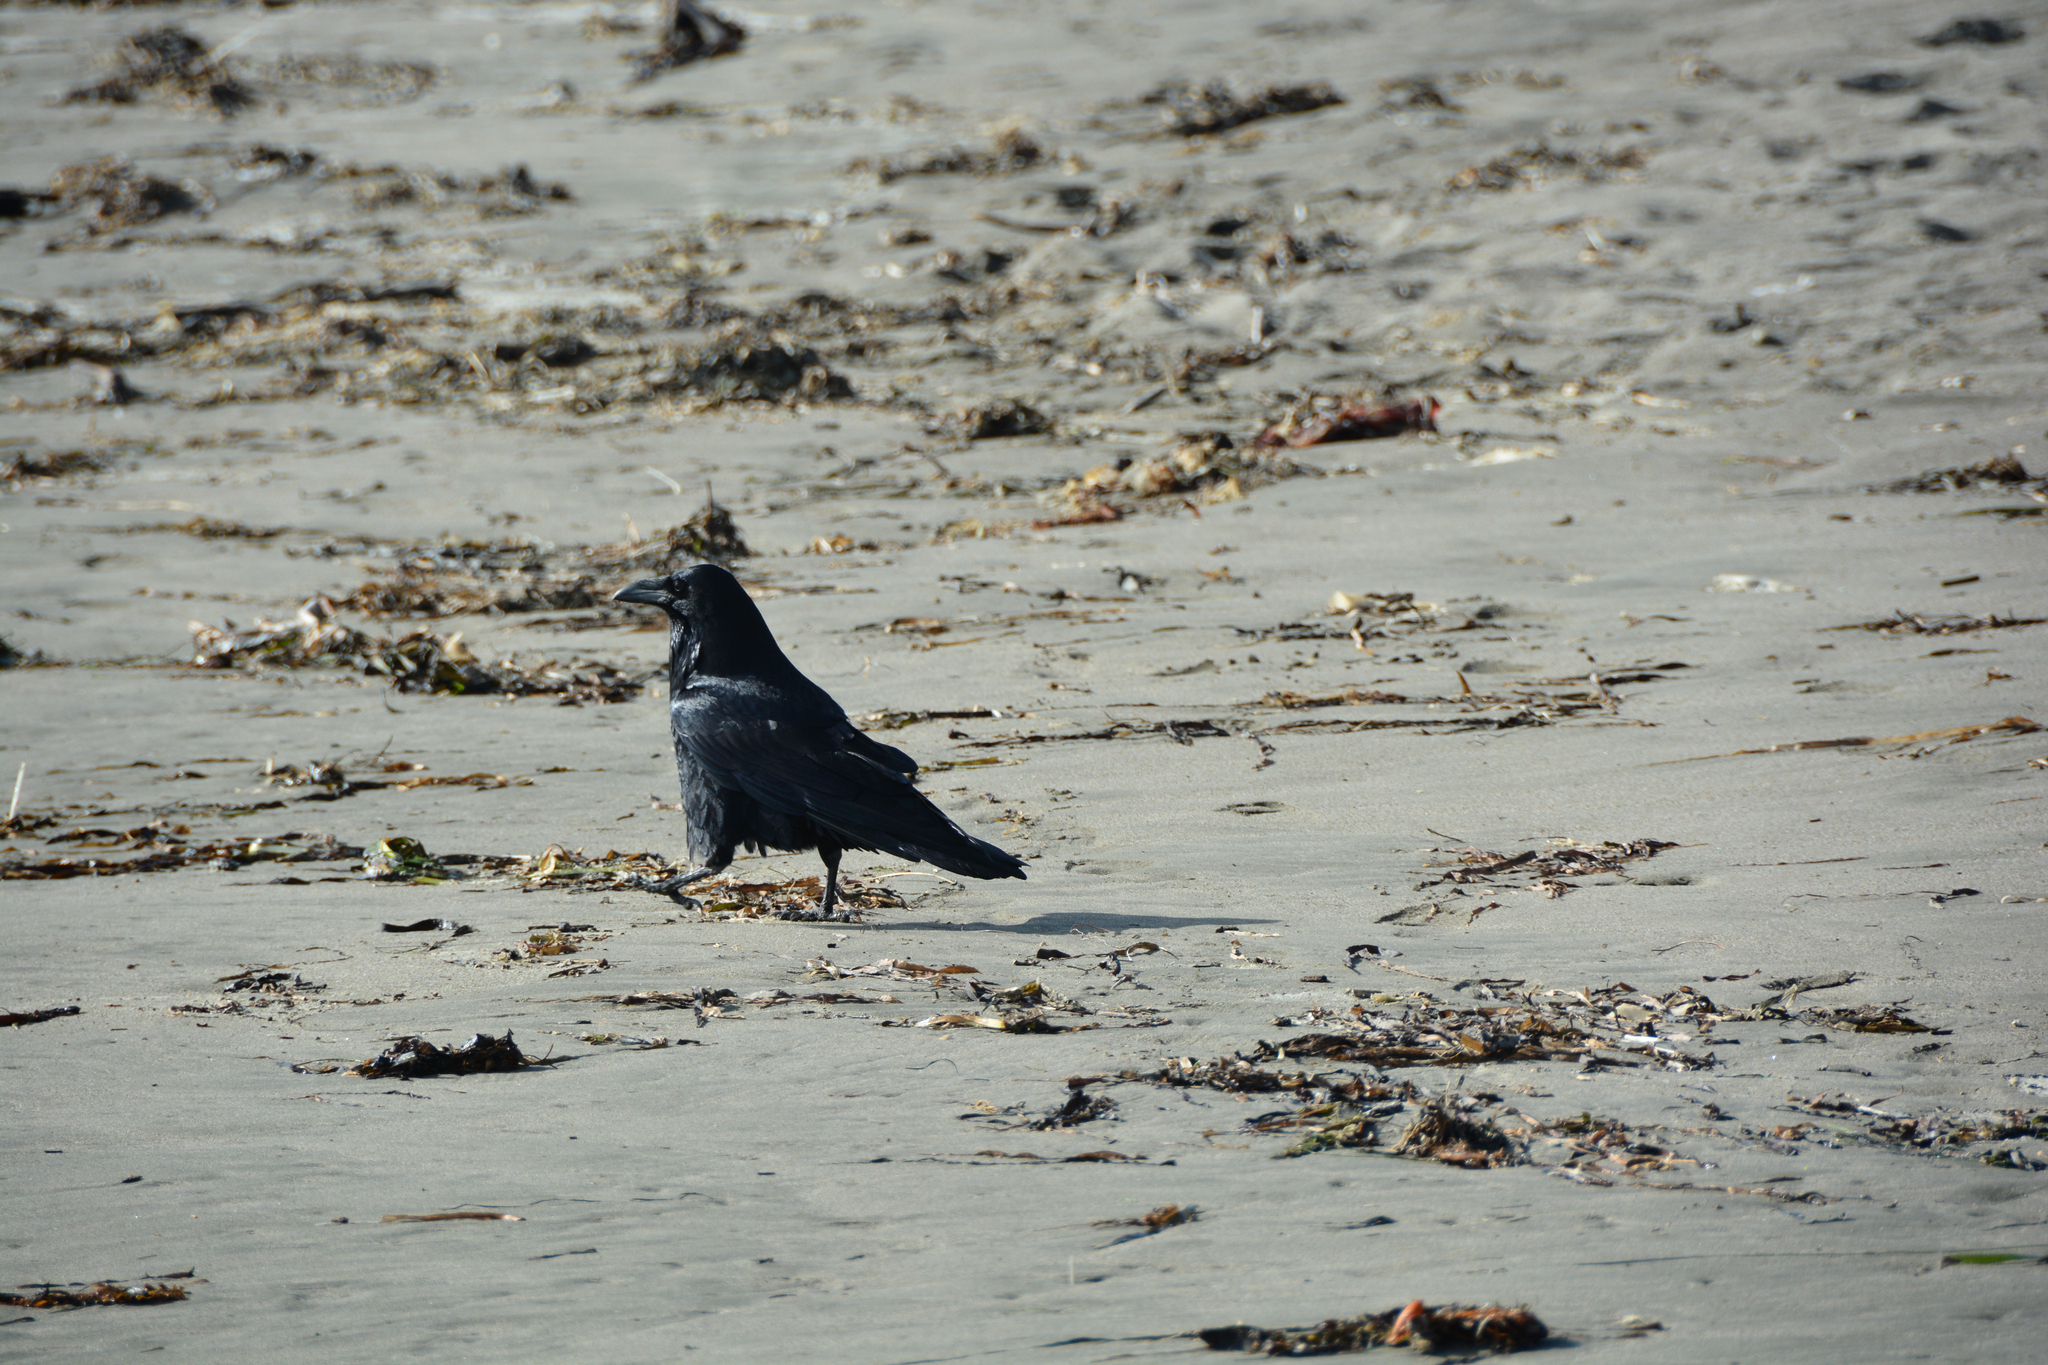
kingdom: Animalia
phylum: Chordata
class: Aves
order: Passeriformes
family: Corvidae
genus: Corvus
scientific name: Corvus corax
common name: Common raven
